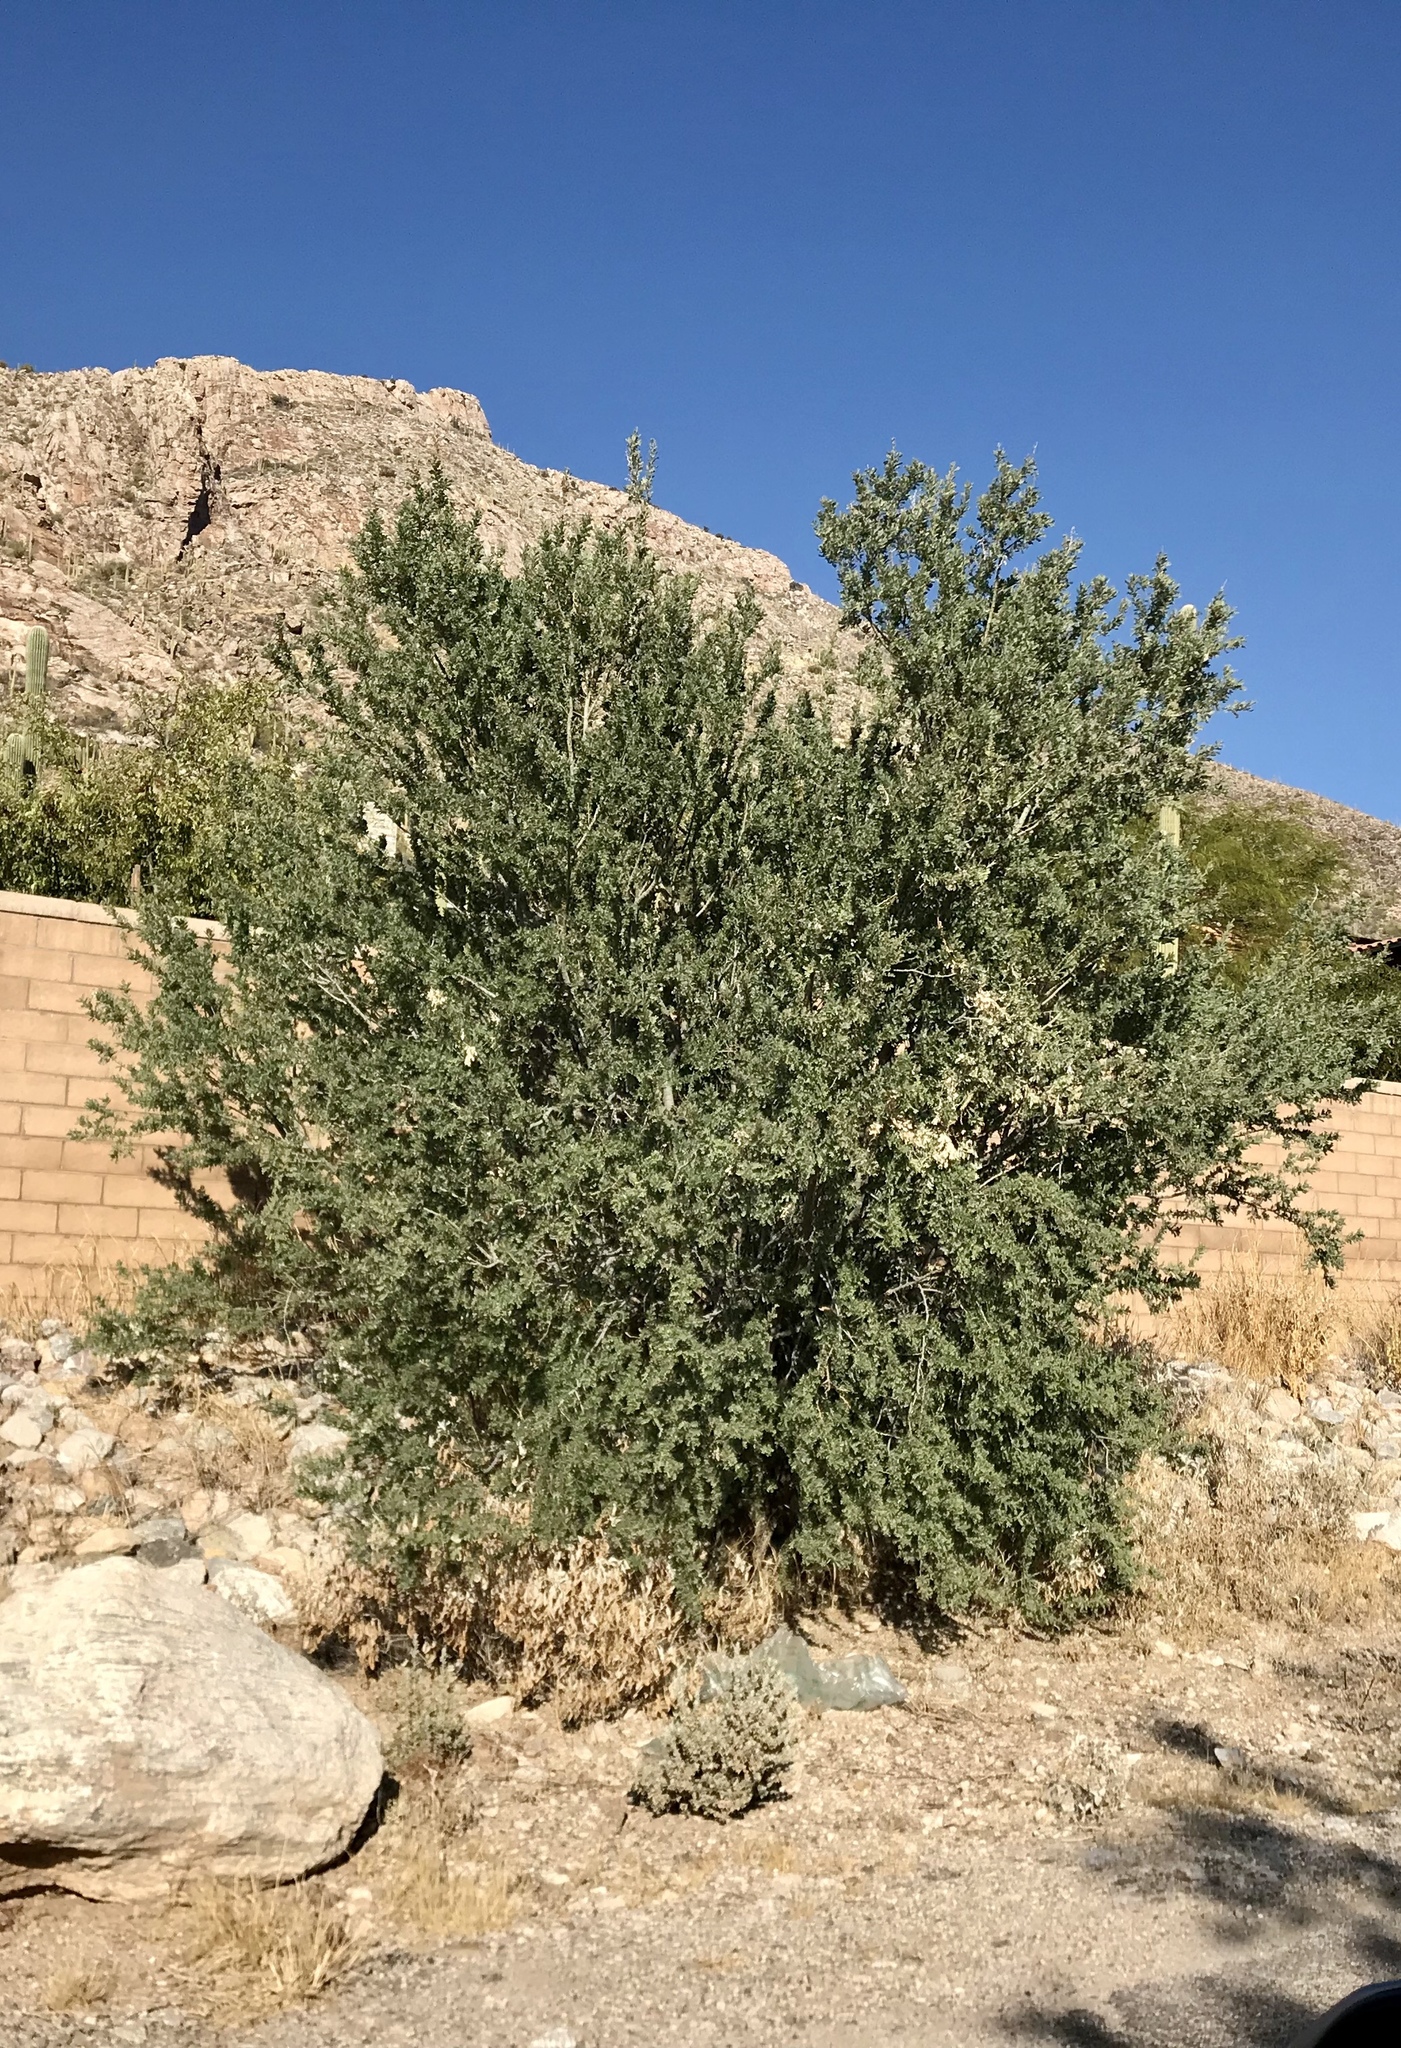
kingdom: Plantae
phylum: Tracheophyta
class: Magnoliopsida
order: Fabales
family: Fabaceae
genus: Olneya
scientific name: Olneya tesota
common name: Desert ironwood
